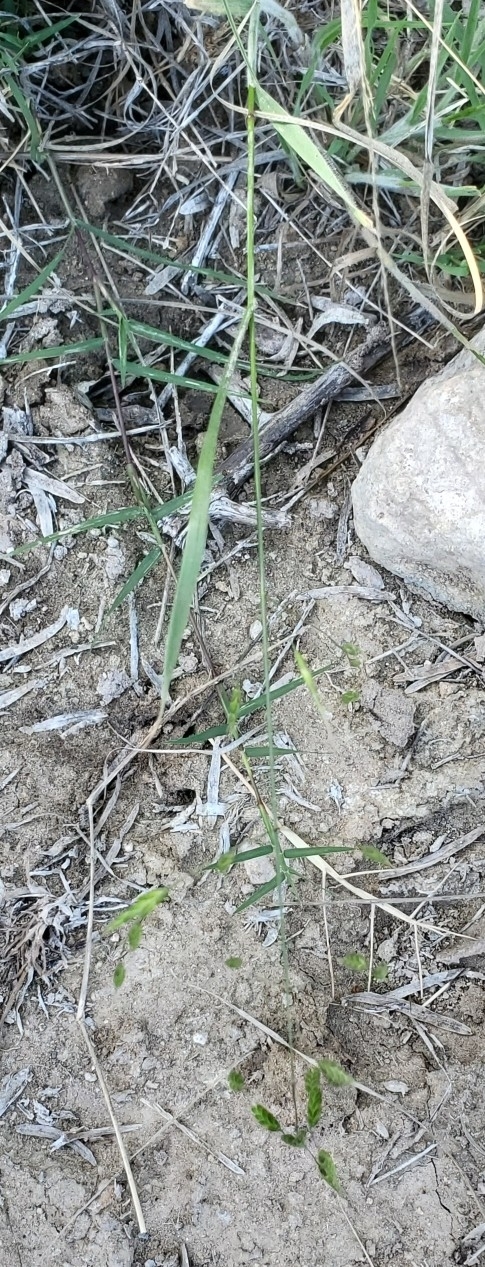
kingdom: Plantae
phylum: Tracheophyta
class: Liliopsida
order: Poales
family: Poaceae
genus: Bromus
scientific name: Bromus japonicus
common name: Japanese brome
